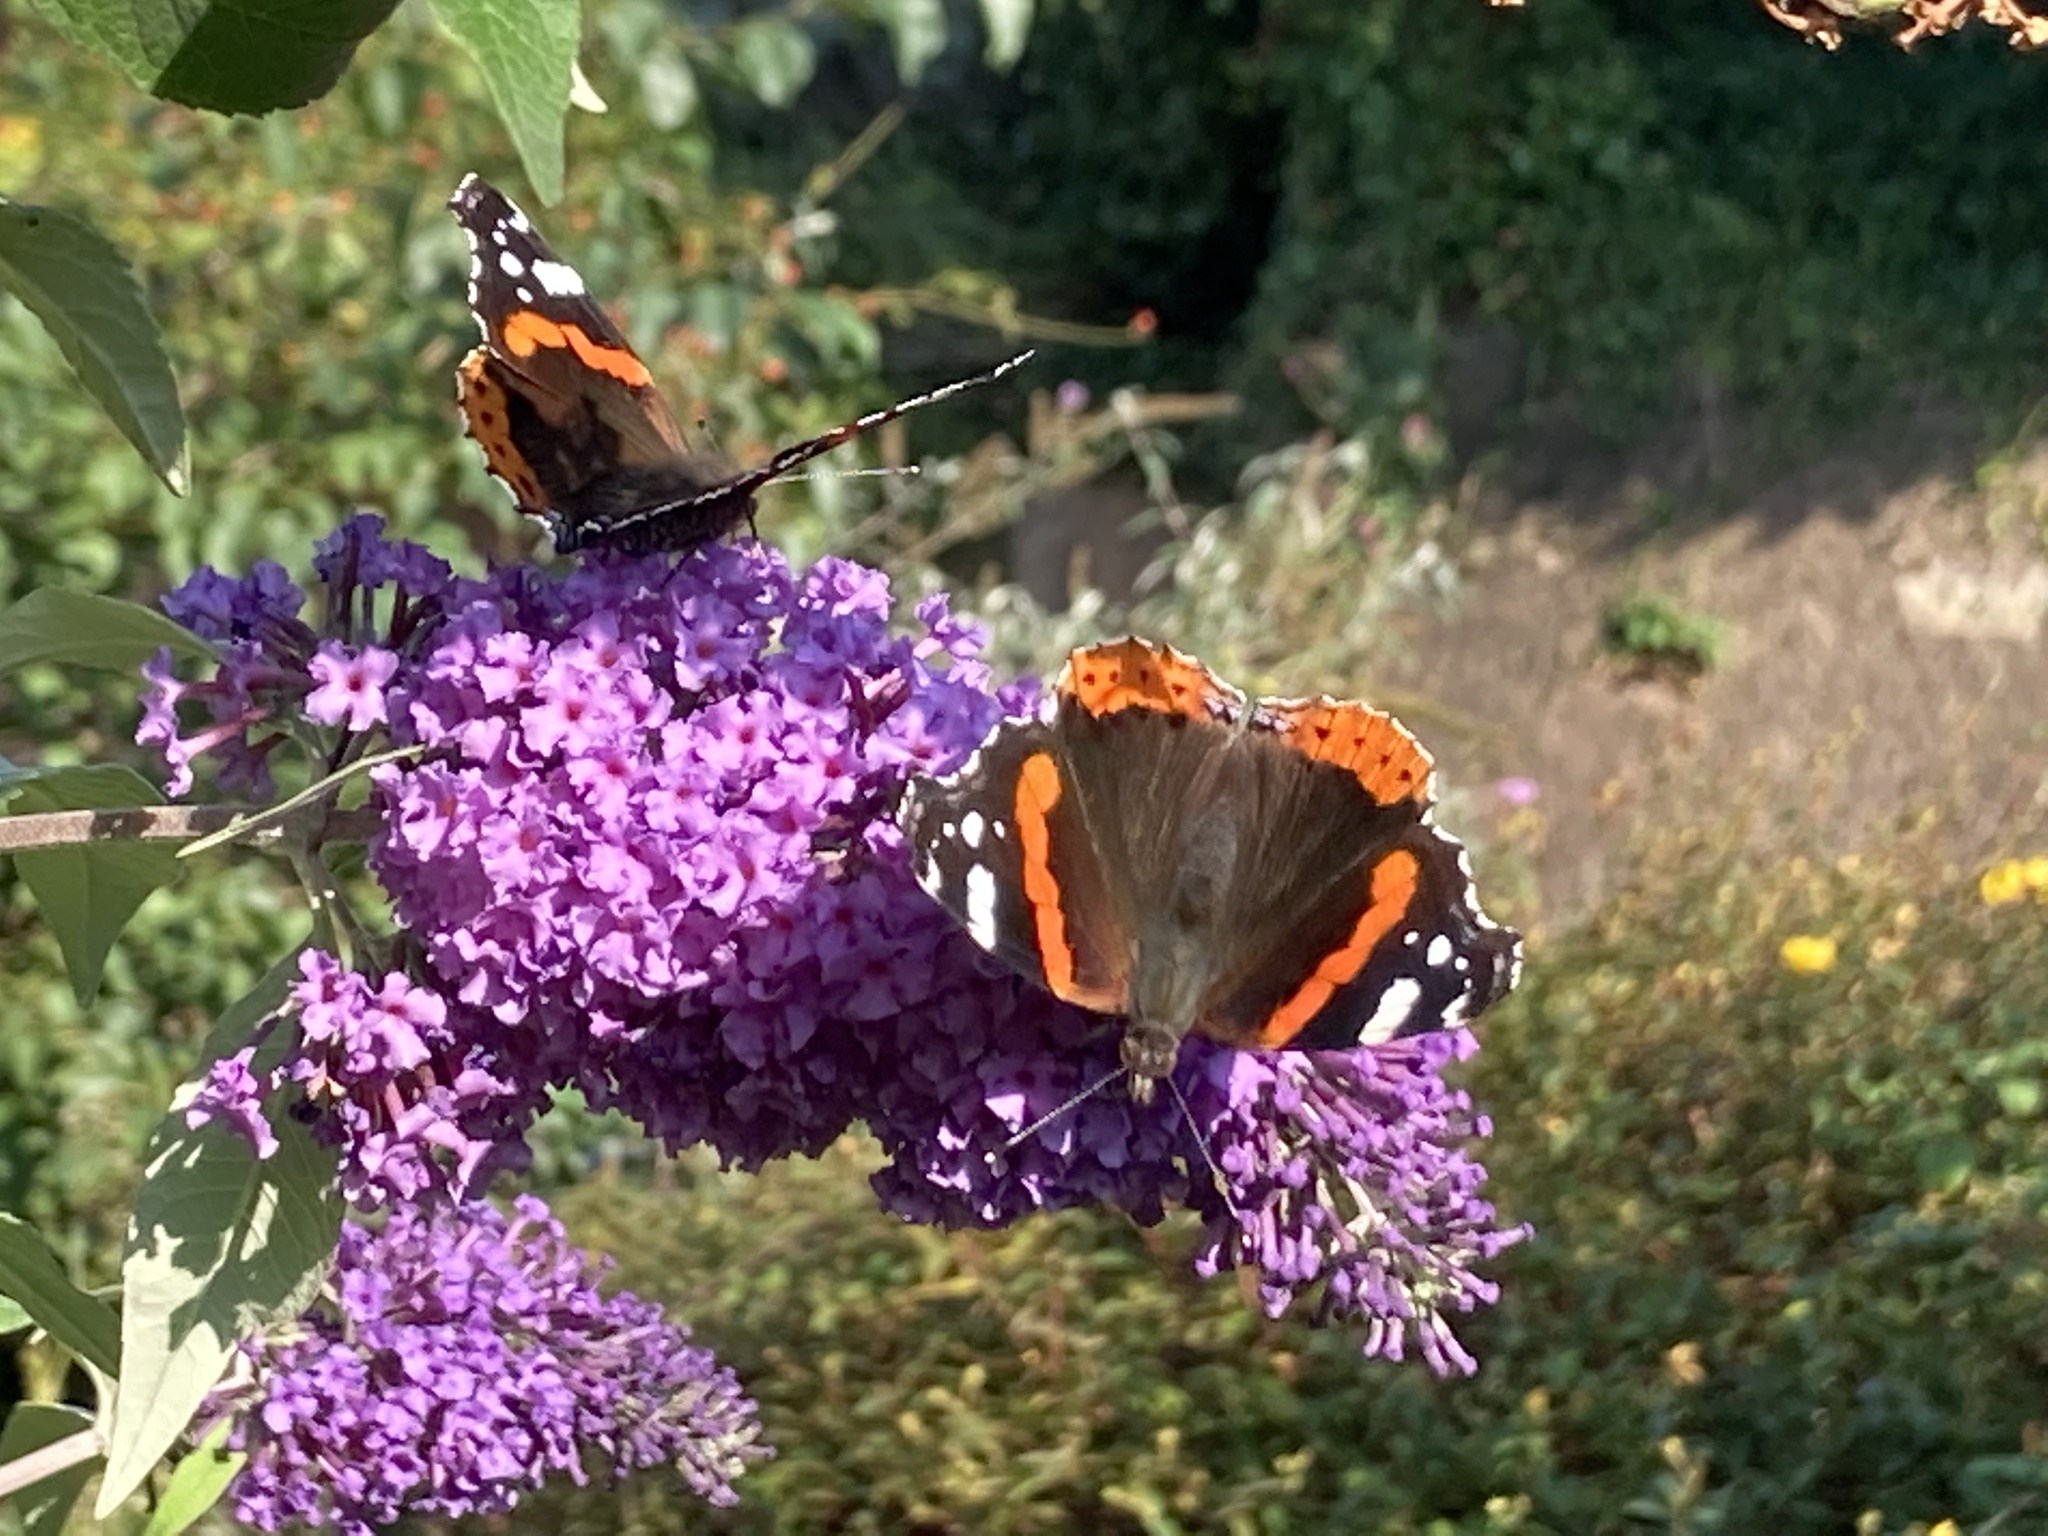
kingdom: Animalia
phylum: Arthropoda
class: Insecta
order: Lepidoptera
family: Nymphalidae
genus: Vanessa
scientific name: Vanessa atalanta
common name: Red admiral
